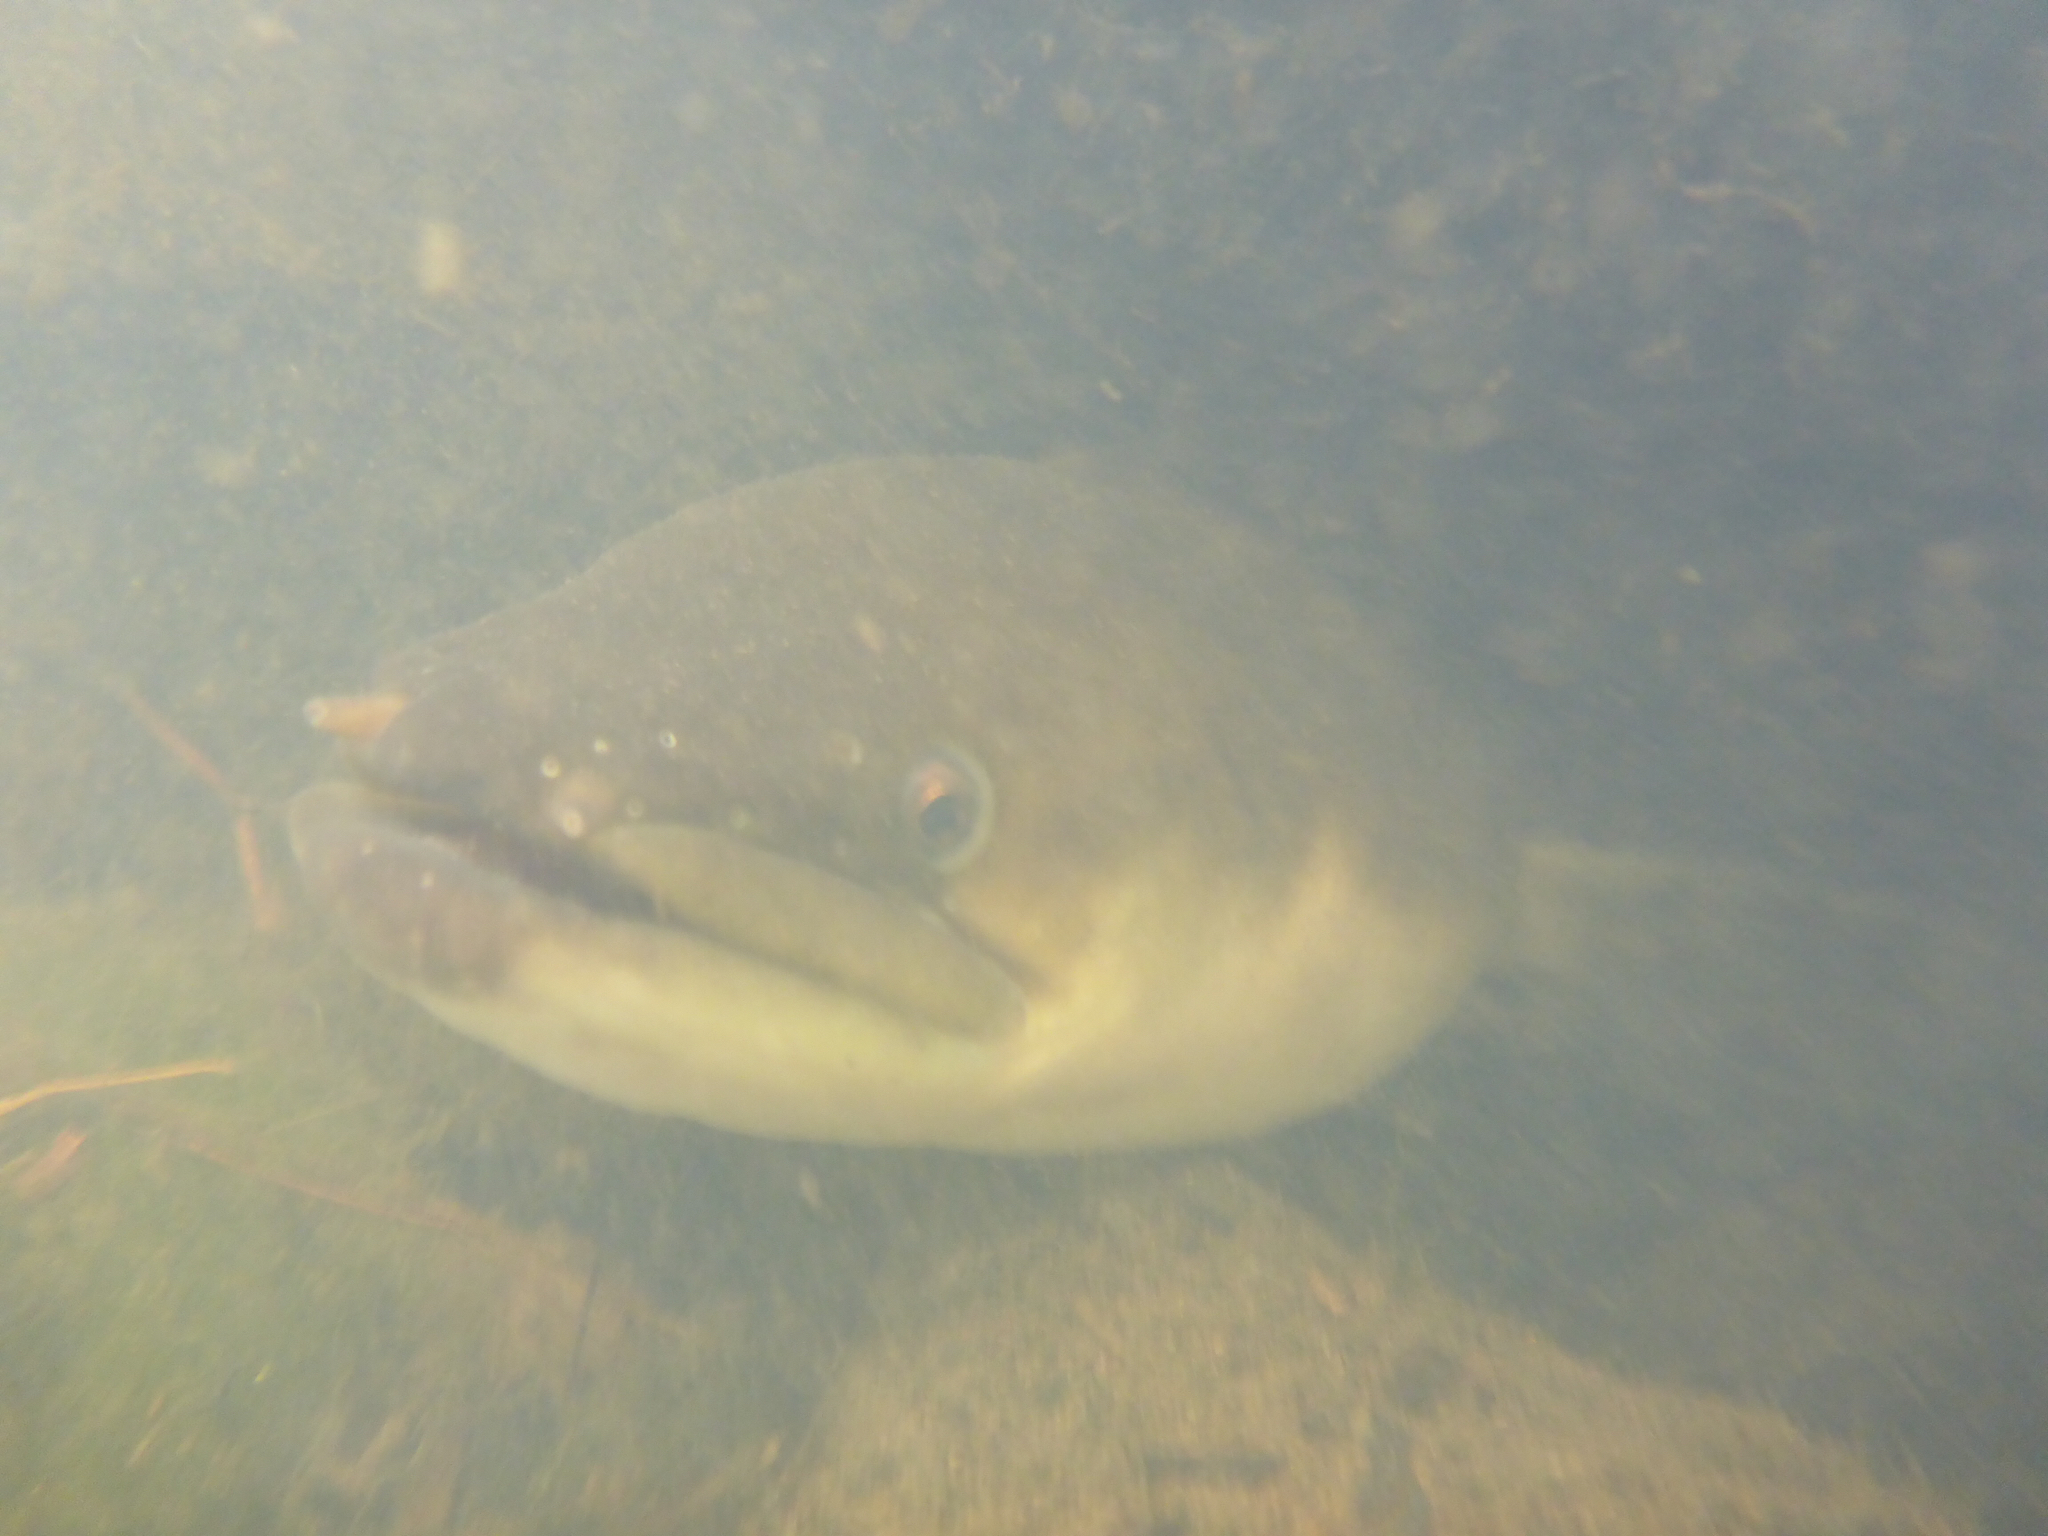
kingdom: Animalia
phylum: Chordata
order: Anguilliformes
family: Anguillidae
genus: Anguilla
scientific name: Anguilla dieffenbachii
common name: New zealand longfin eel
